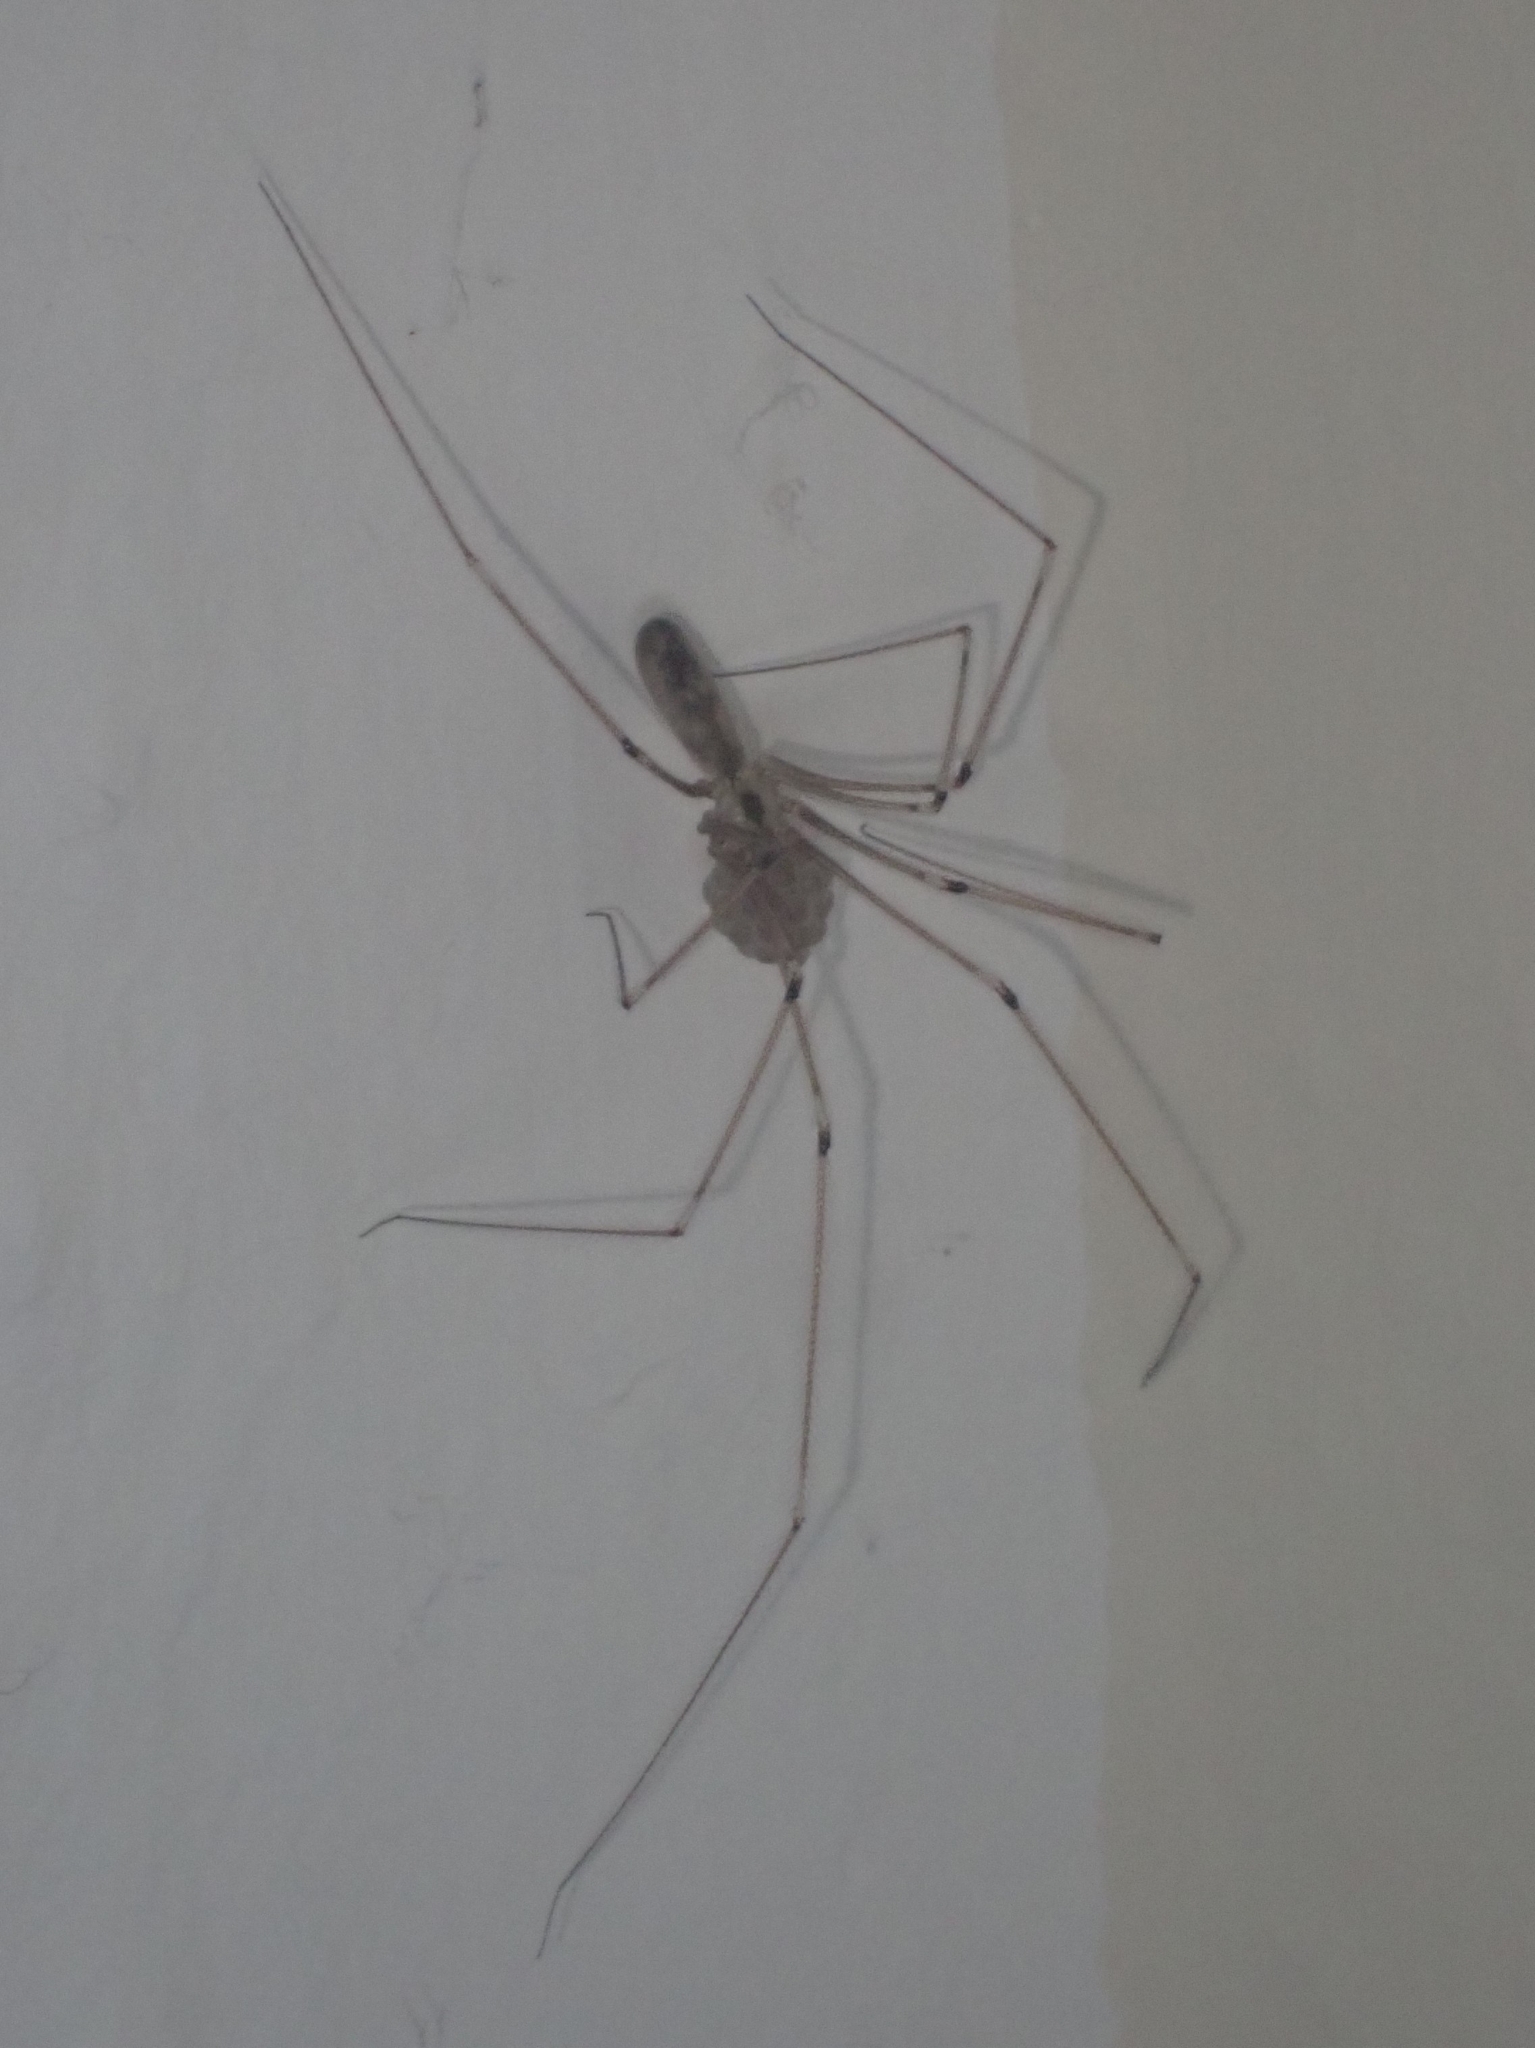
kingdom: Animalia
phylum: Arthropoda
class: Arachnida
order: Araneae
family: Pholcidae
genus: Pholcus
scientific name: Pholcus phalangioides
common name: Longbodied cellar spider
